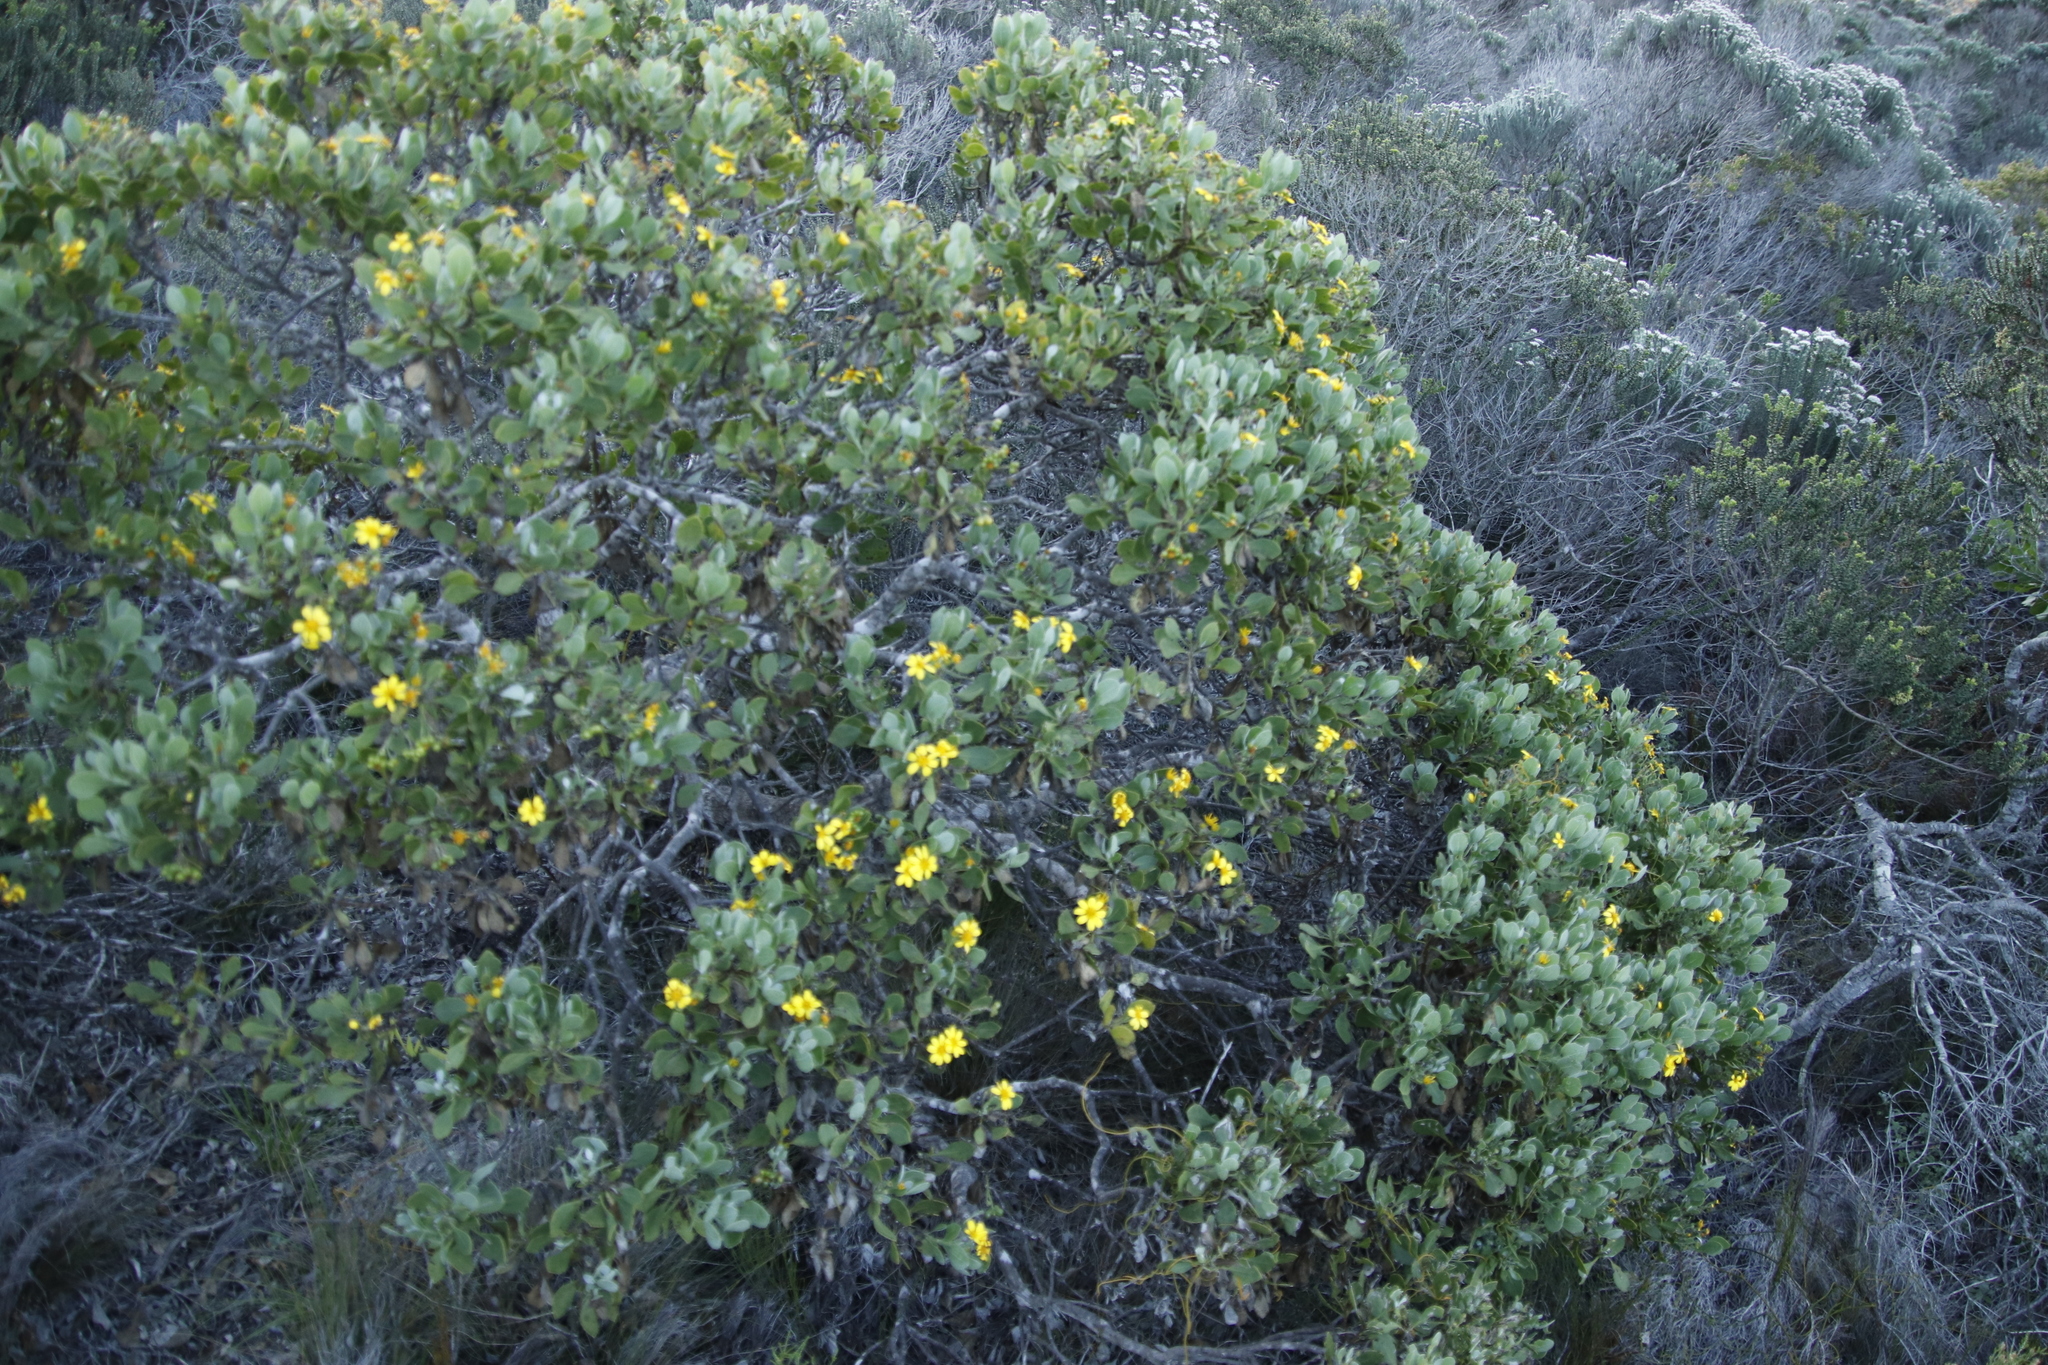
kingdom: Plantae
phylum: Tracheophyta
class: Magnoliopsida
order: Asterales
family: Asteraceae
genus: Osteospermum
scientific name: Osteospermum moniliferum
